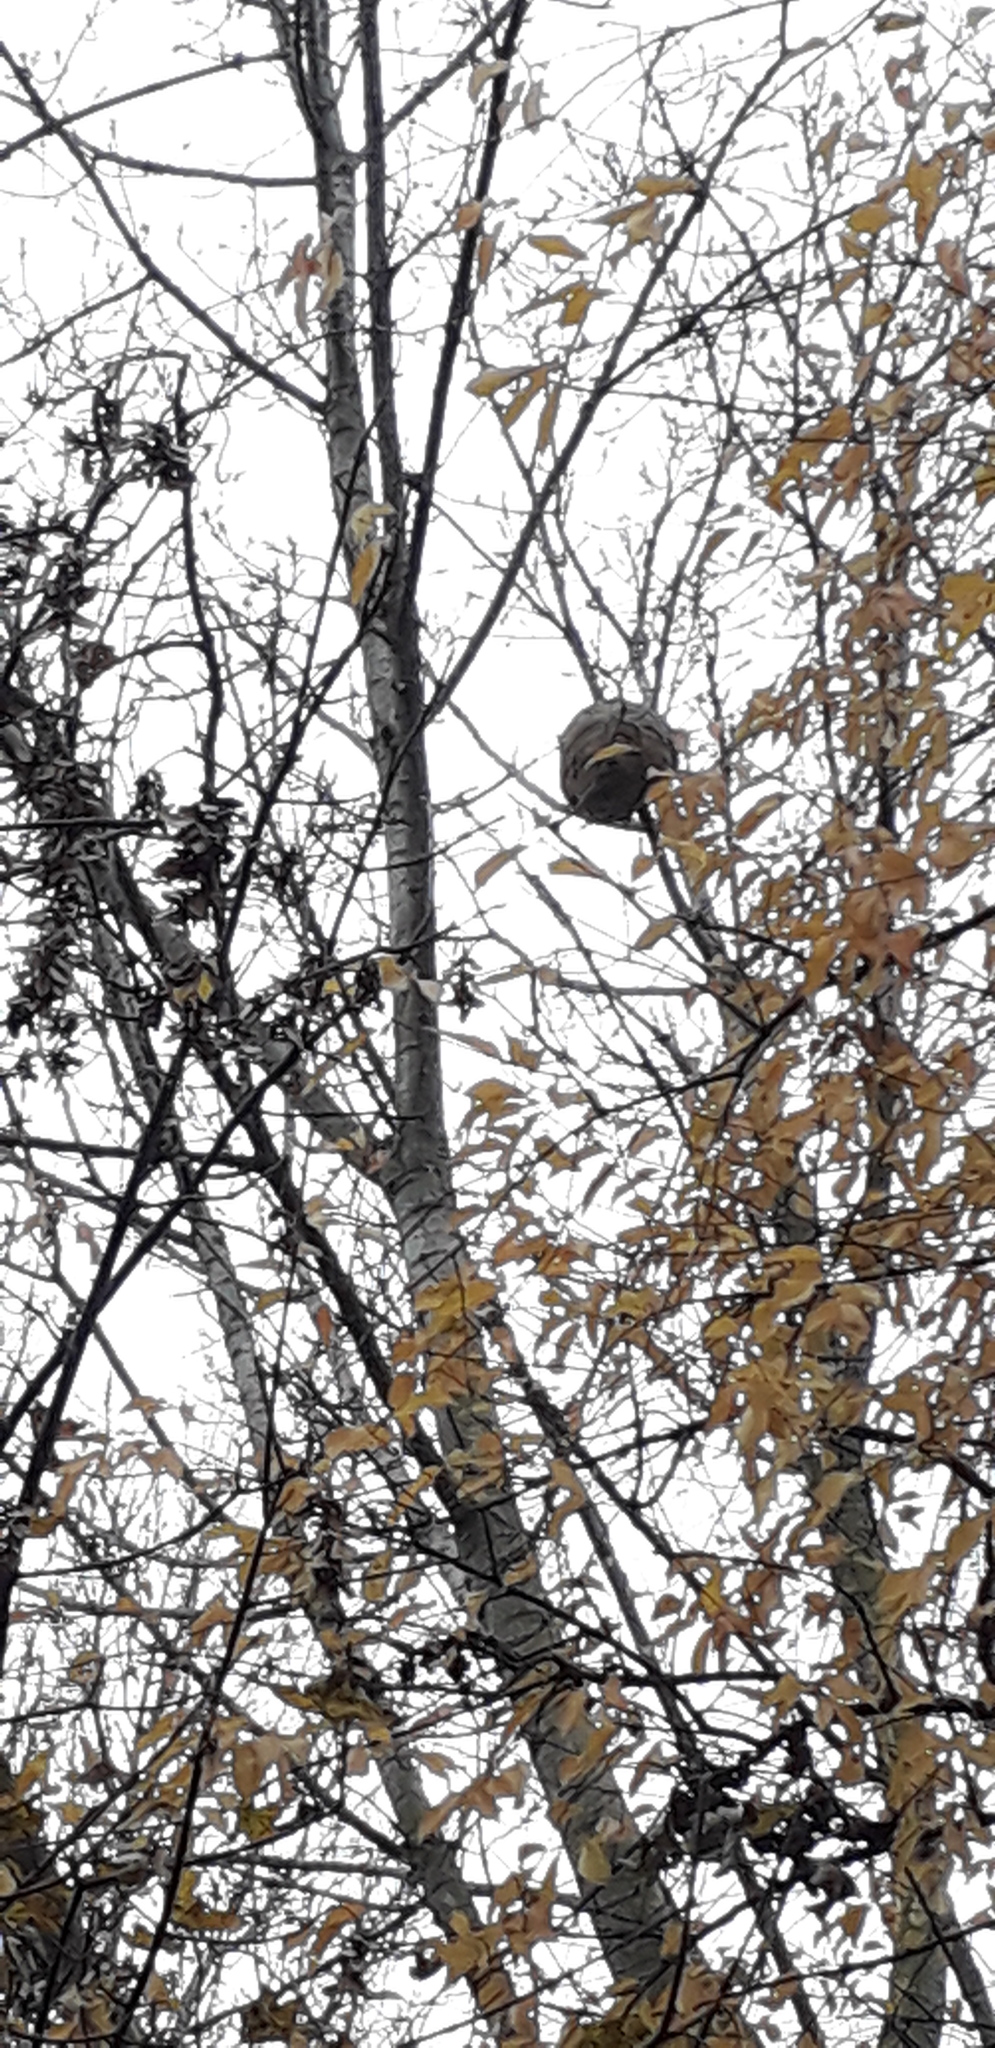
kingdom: Animalia
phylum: Arthropoda
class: Insecta
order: Hymenoptera
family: Vespidae
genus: Vespa
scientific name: Vespa velutina
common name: Asian hornet
